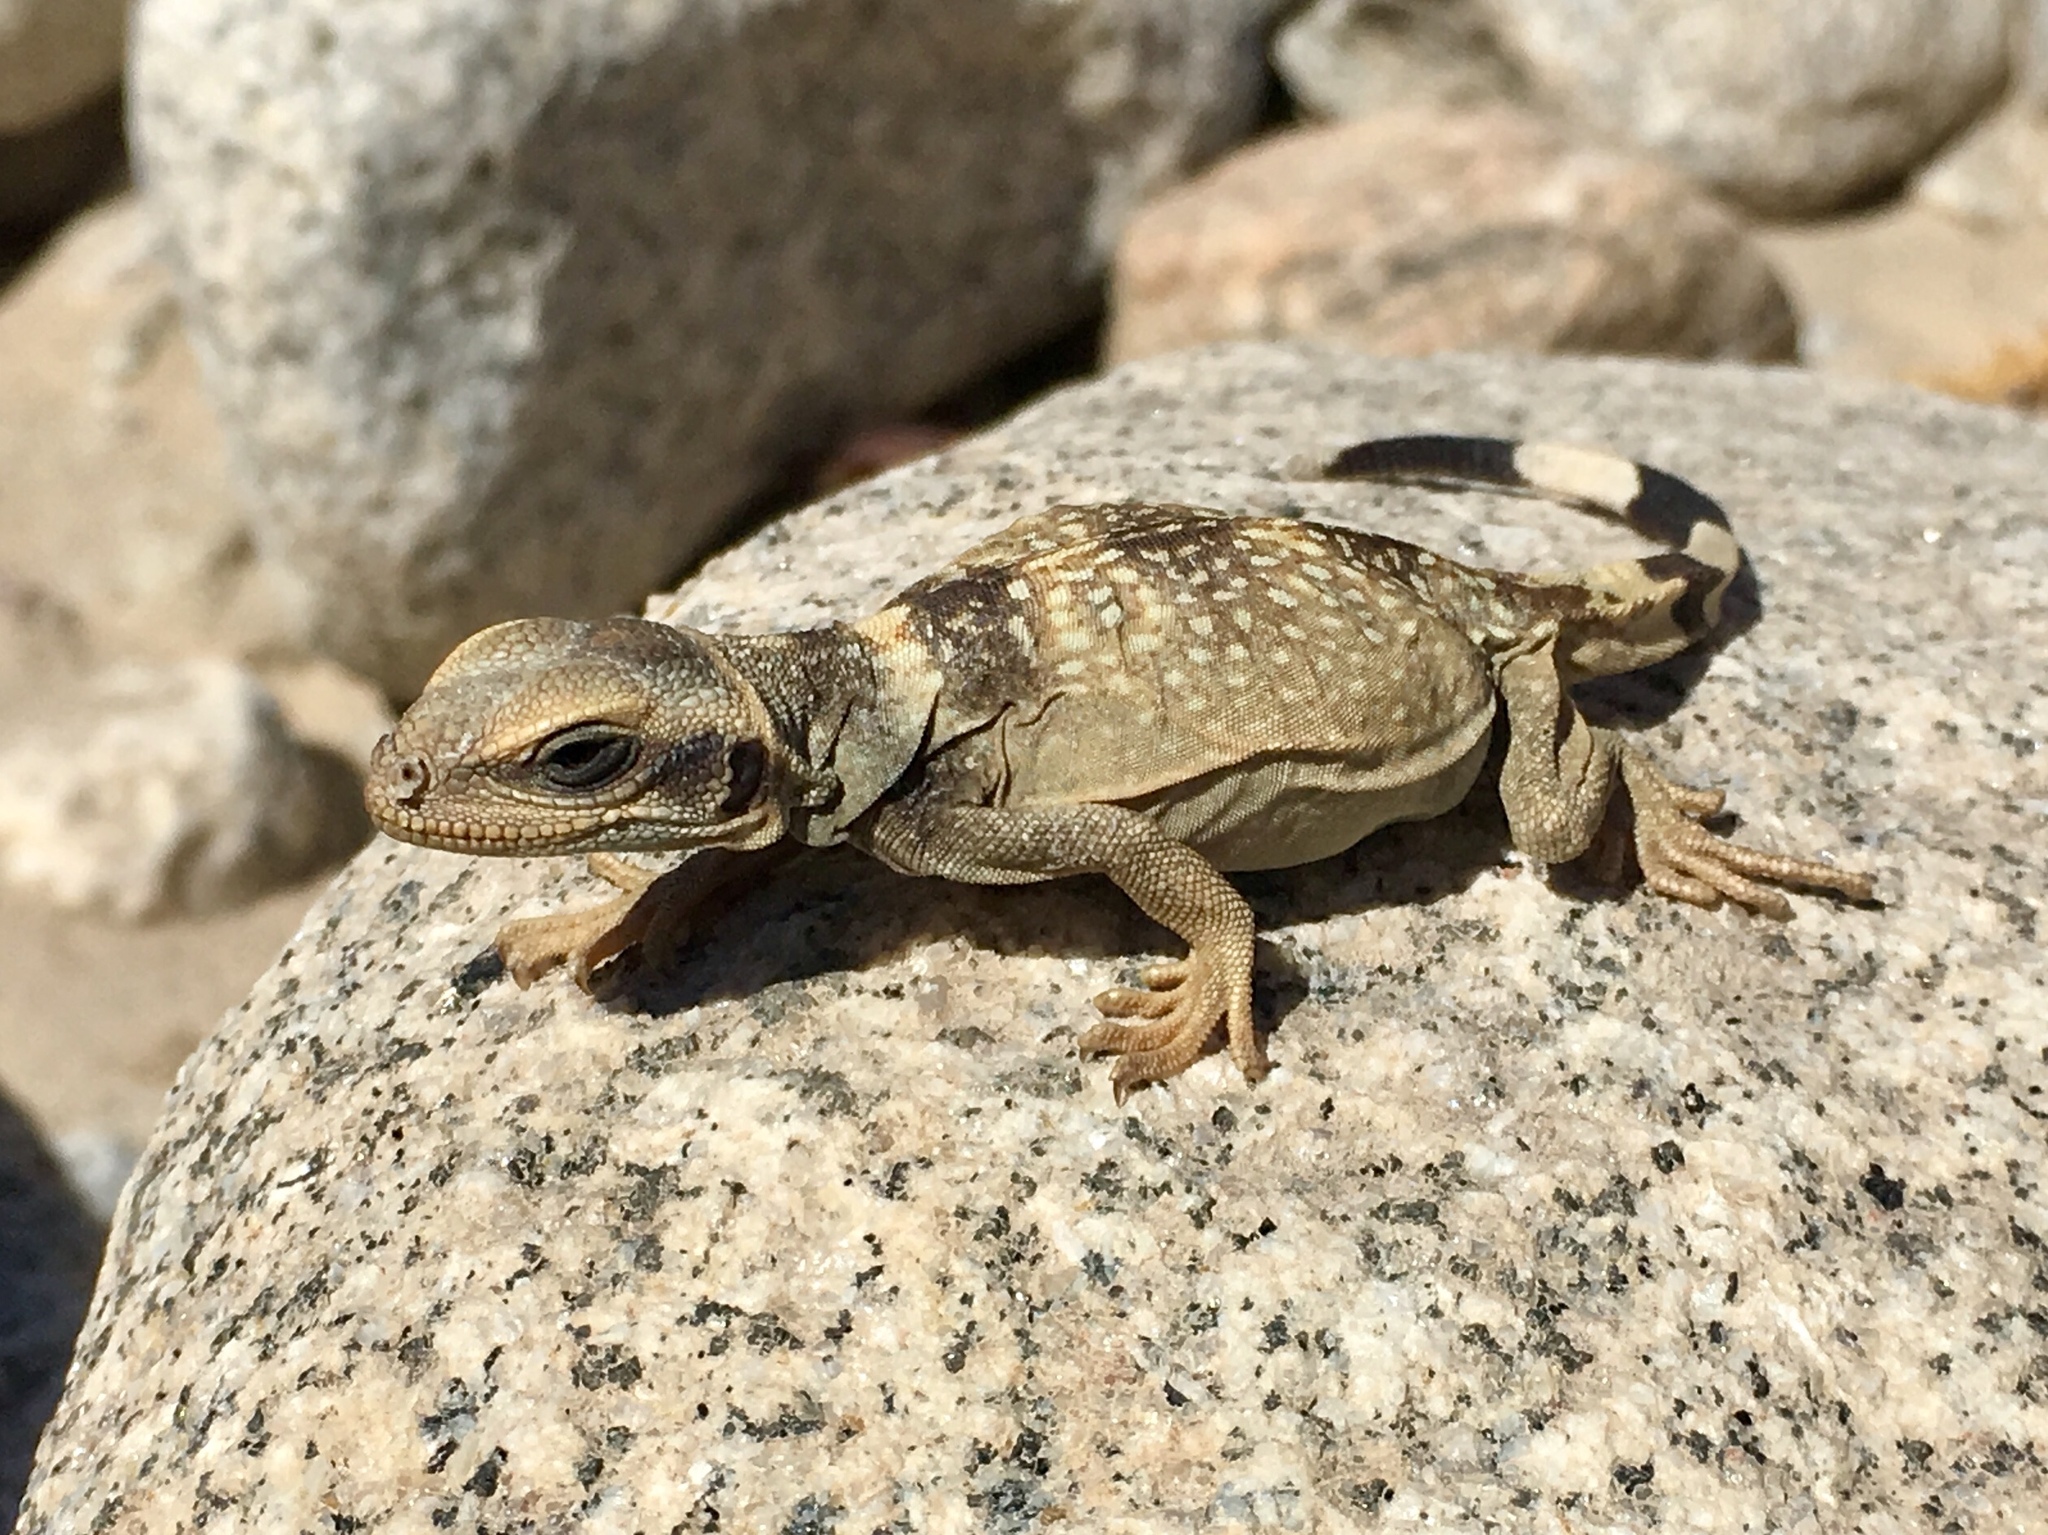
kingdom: Animalia
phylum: Chordata
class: Squamata
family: Iguanidae
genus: Sauromalus
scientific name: Sauromalus ater
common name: Northern chuckwalla
